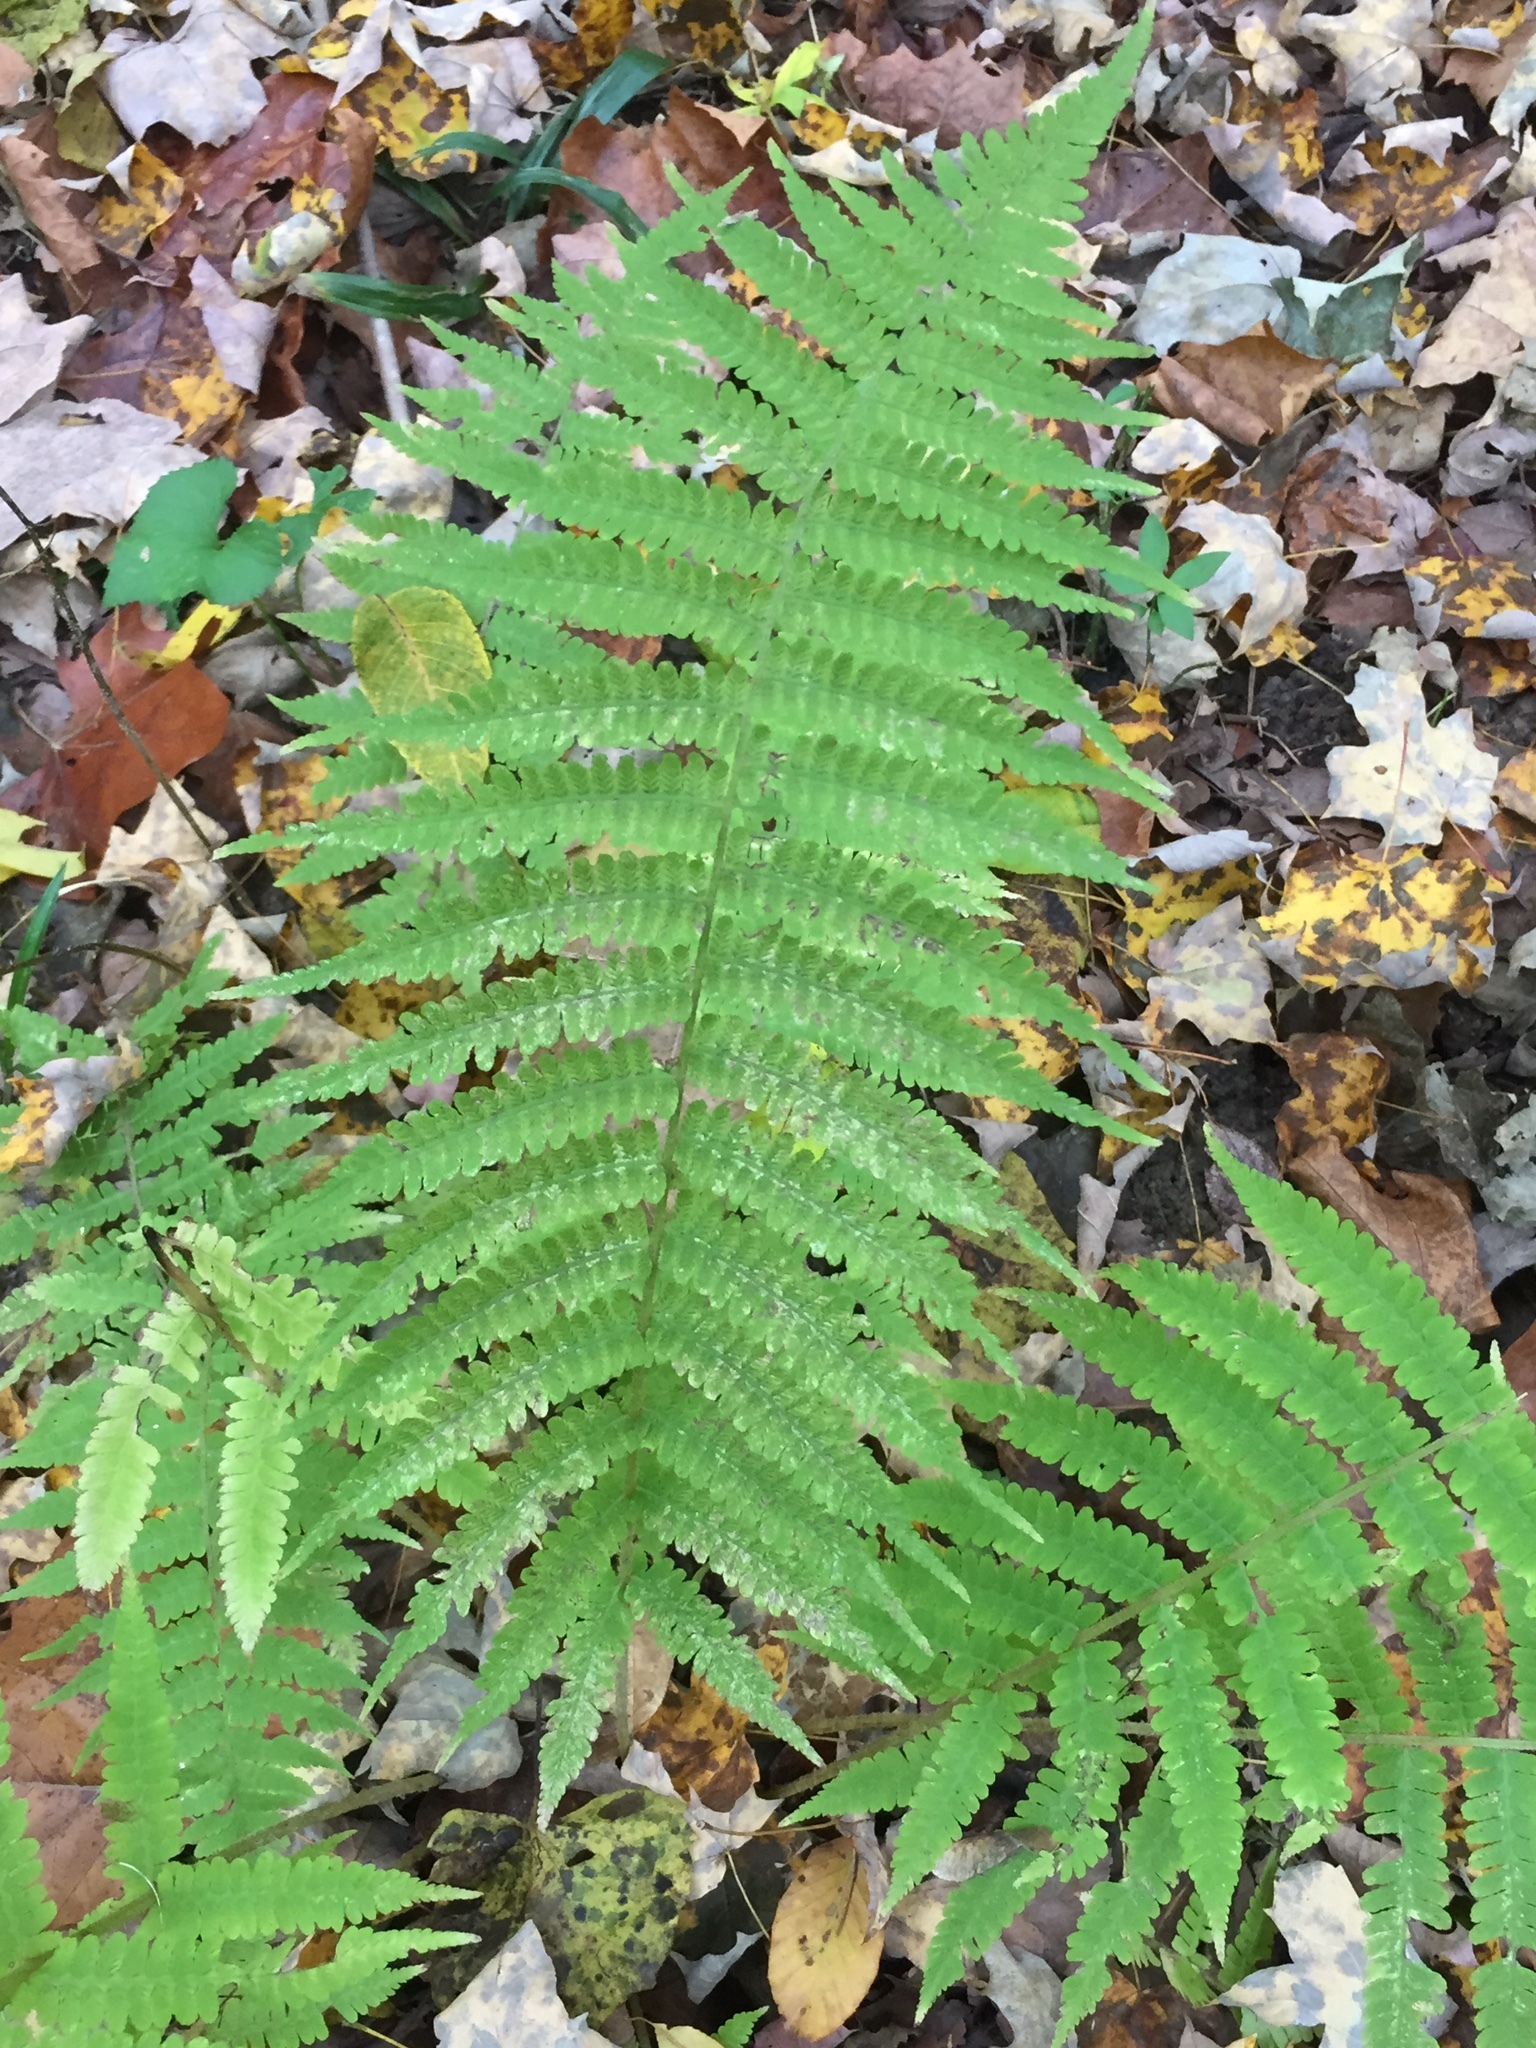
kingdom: Plantae
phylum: Tracheophyta
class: Polypodiopsida
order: Polypodiales
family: Athyriaceae
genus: Deparia
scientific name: Deparia acrostichoides
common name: Silver false spleenwort
